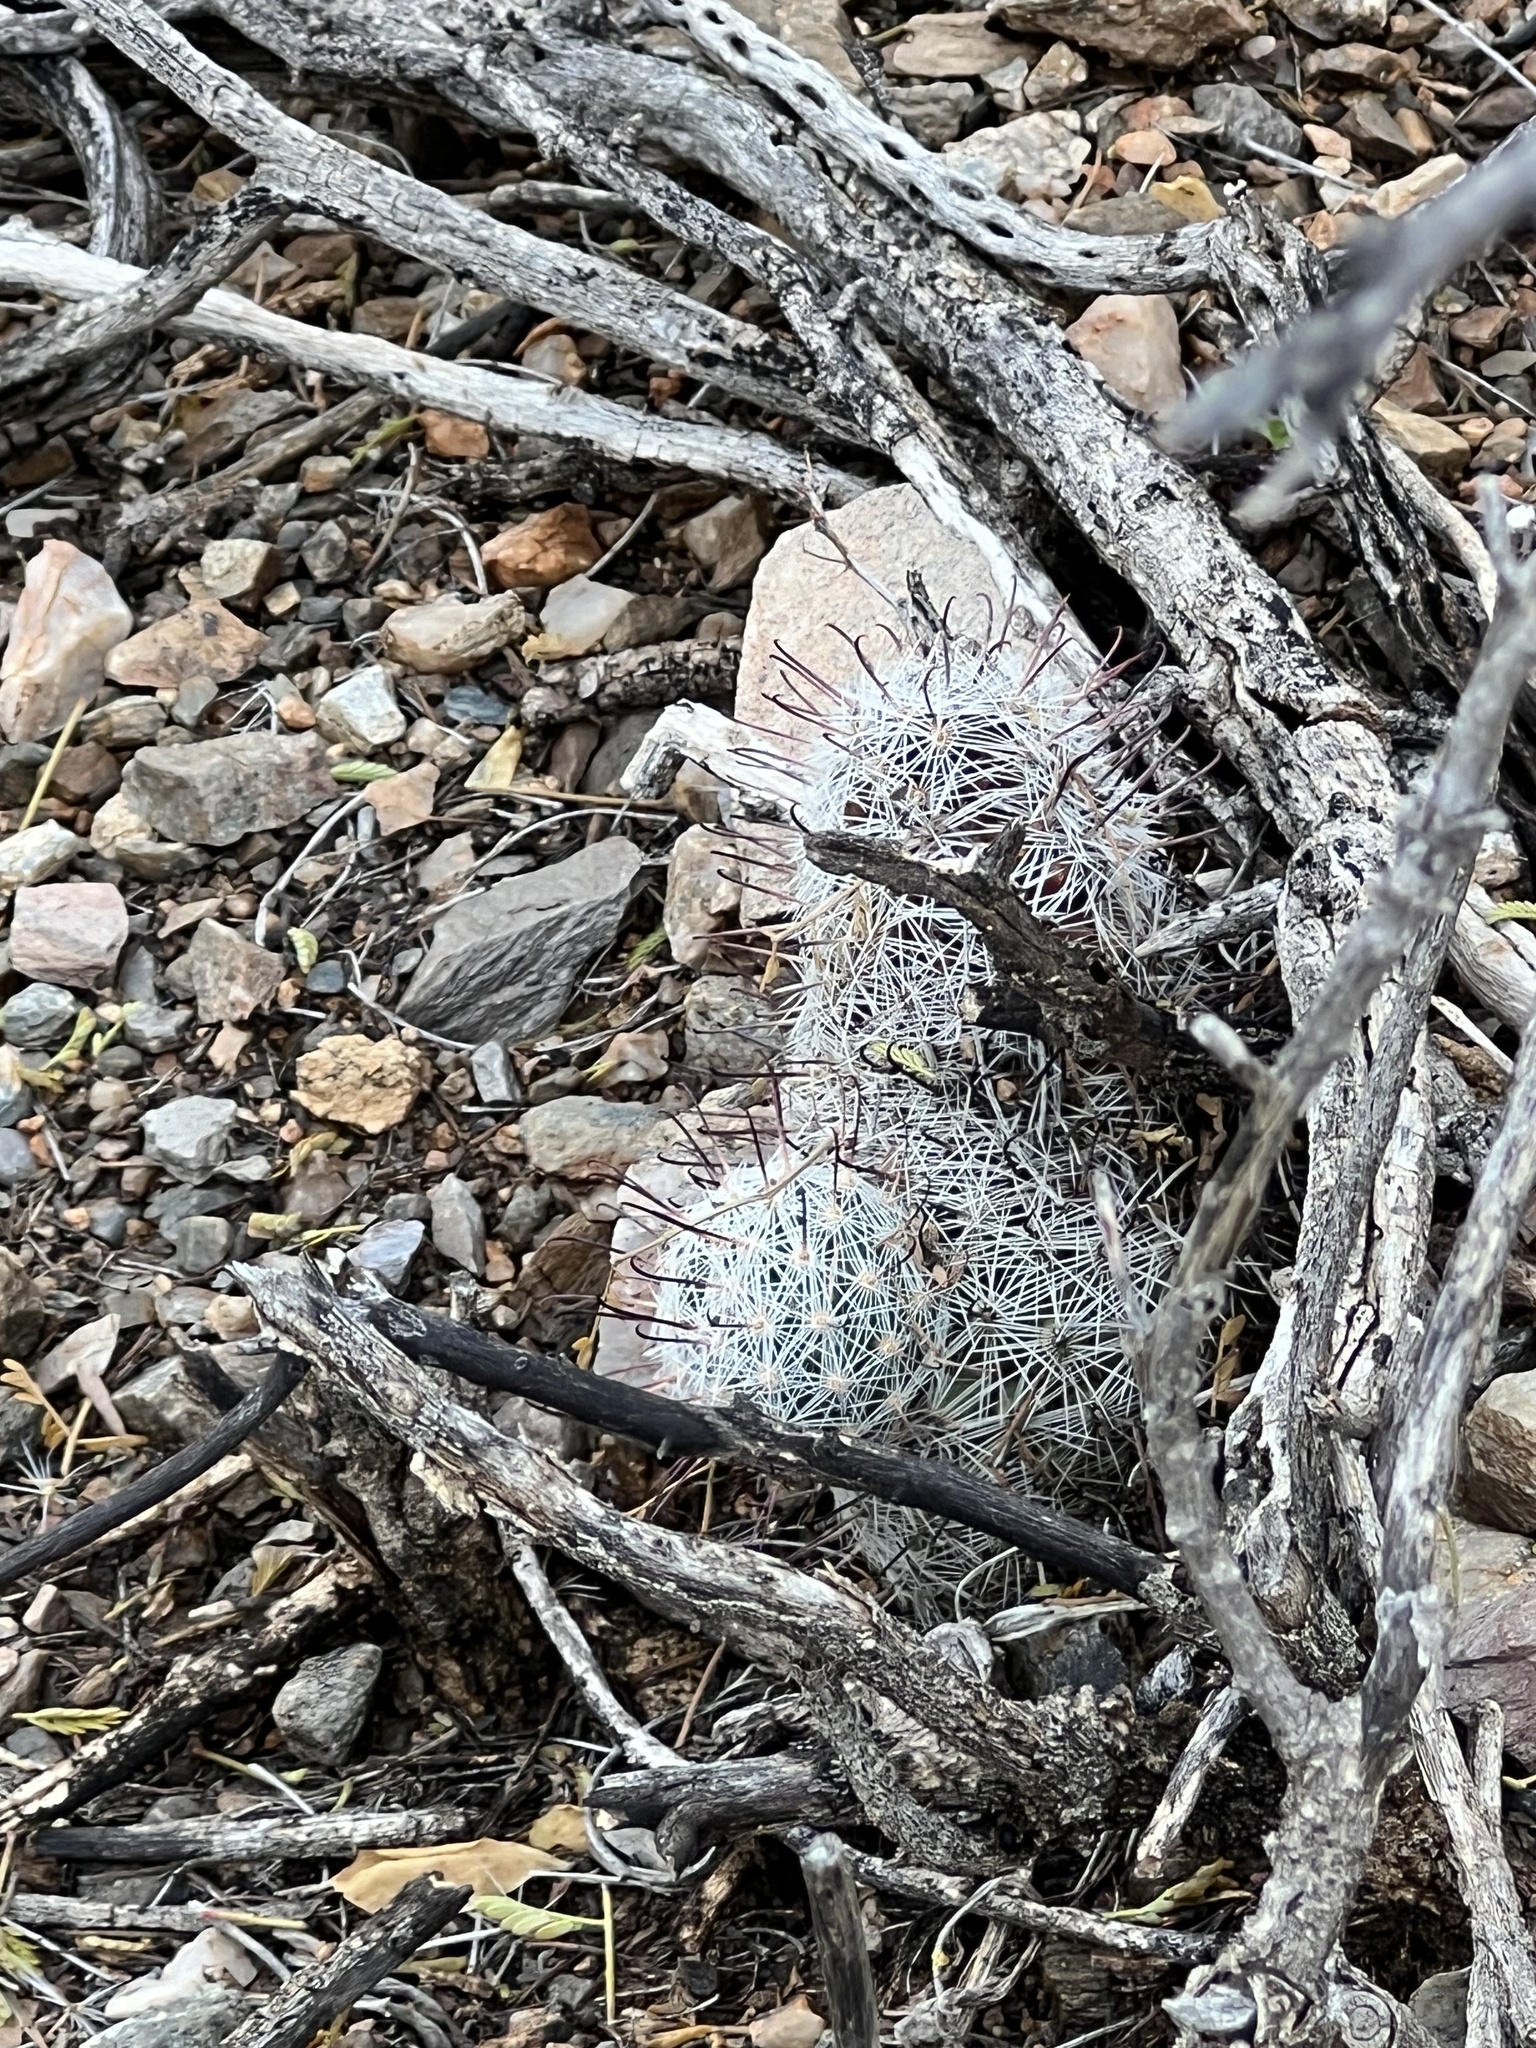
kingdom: Plantae
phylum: Tracheophyta
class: Magnoliopsida
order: Caryophyllales
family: Cactaceae
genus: Cochemiea
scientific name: Cochemiea grahamii
